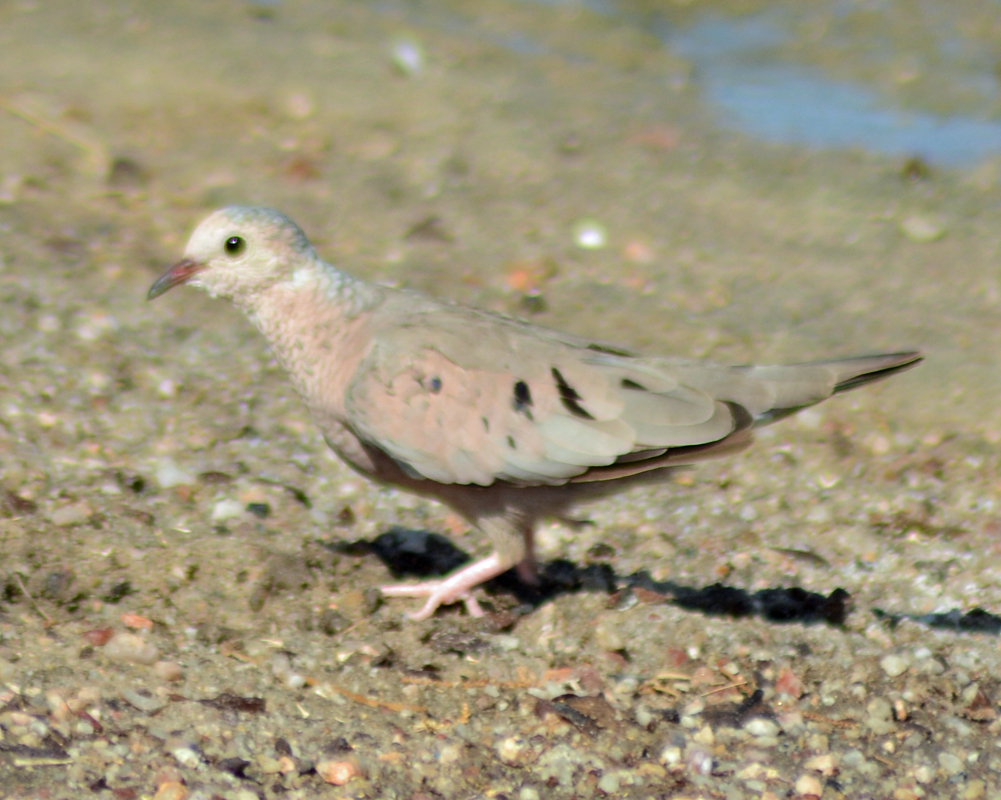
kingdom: Animalia
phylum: Chordata
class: Aves
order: Columbiformes
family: Columbidae
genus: Columbina
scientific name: Columbina passerina
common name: Common ground-dove
